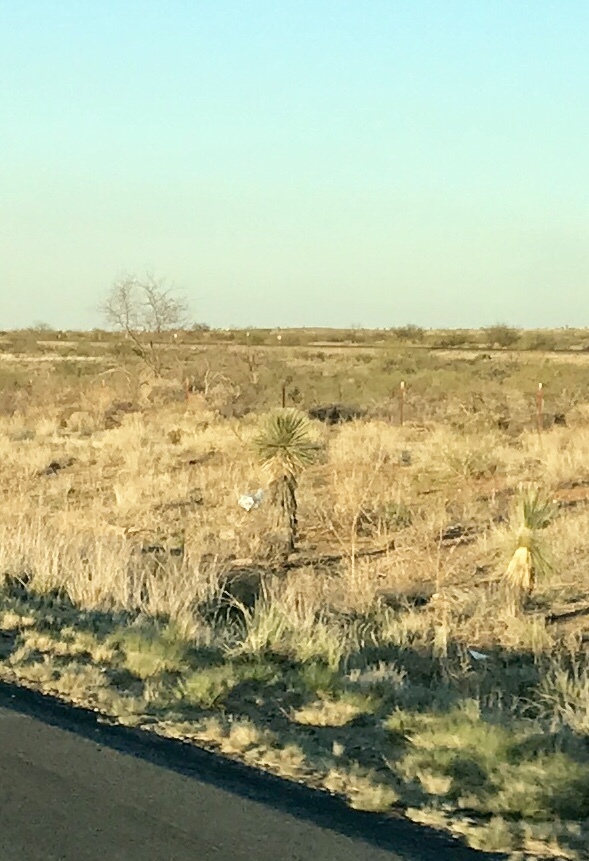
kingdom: Plantae
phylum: Tracheophyta
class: Liliopsida
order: Asparagales
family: Asparagaceae
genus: Yucca
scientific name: Yucca elata
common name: Palmella
